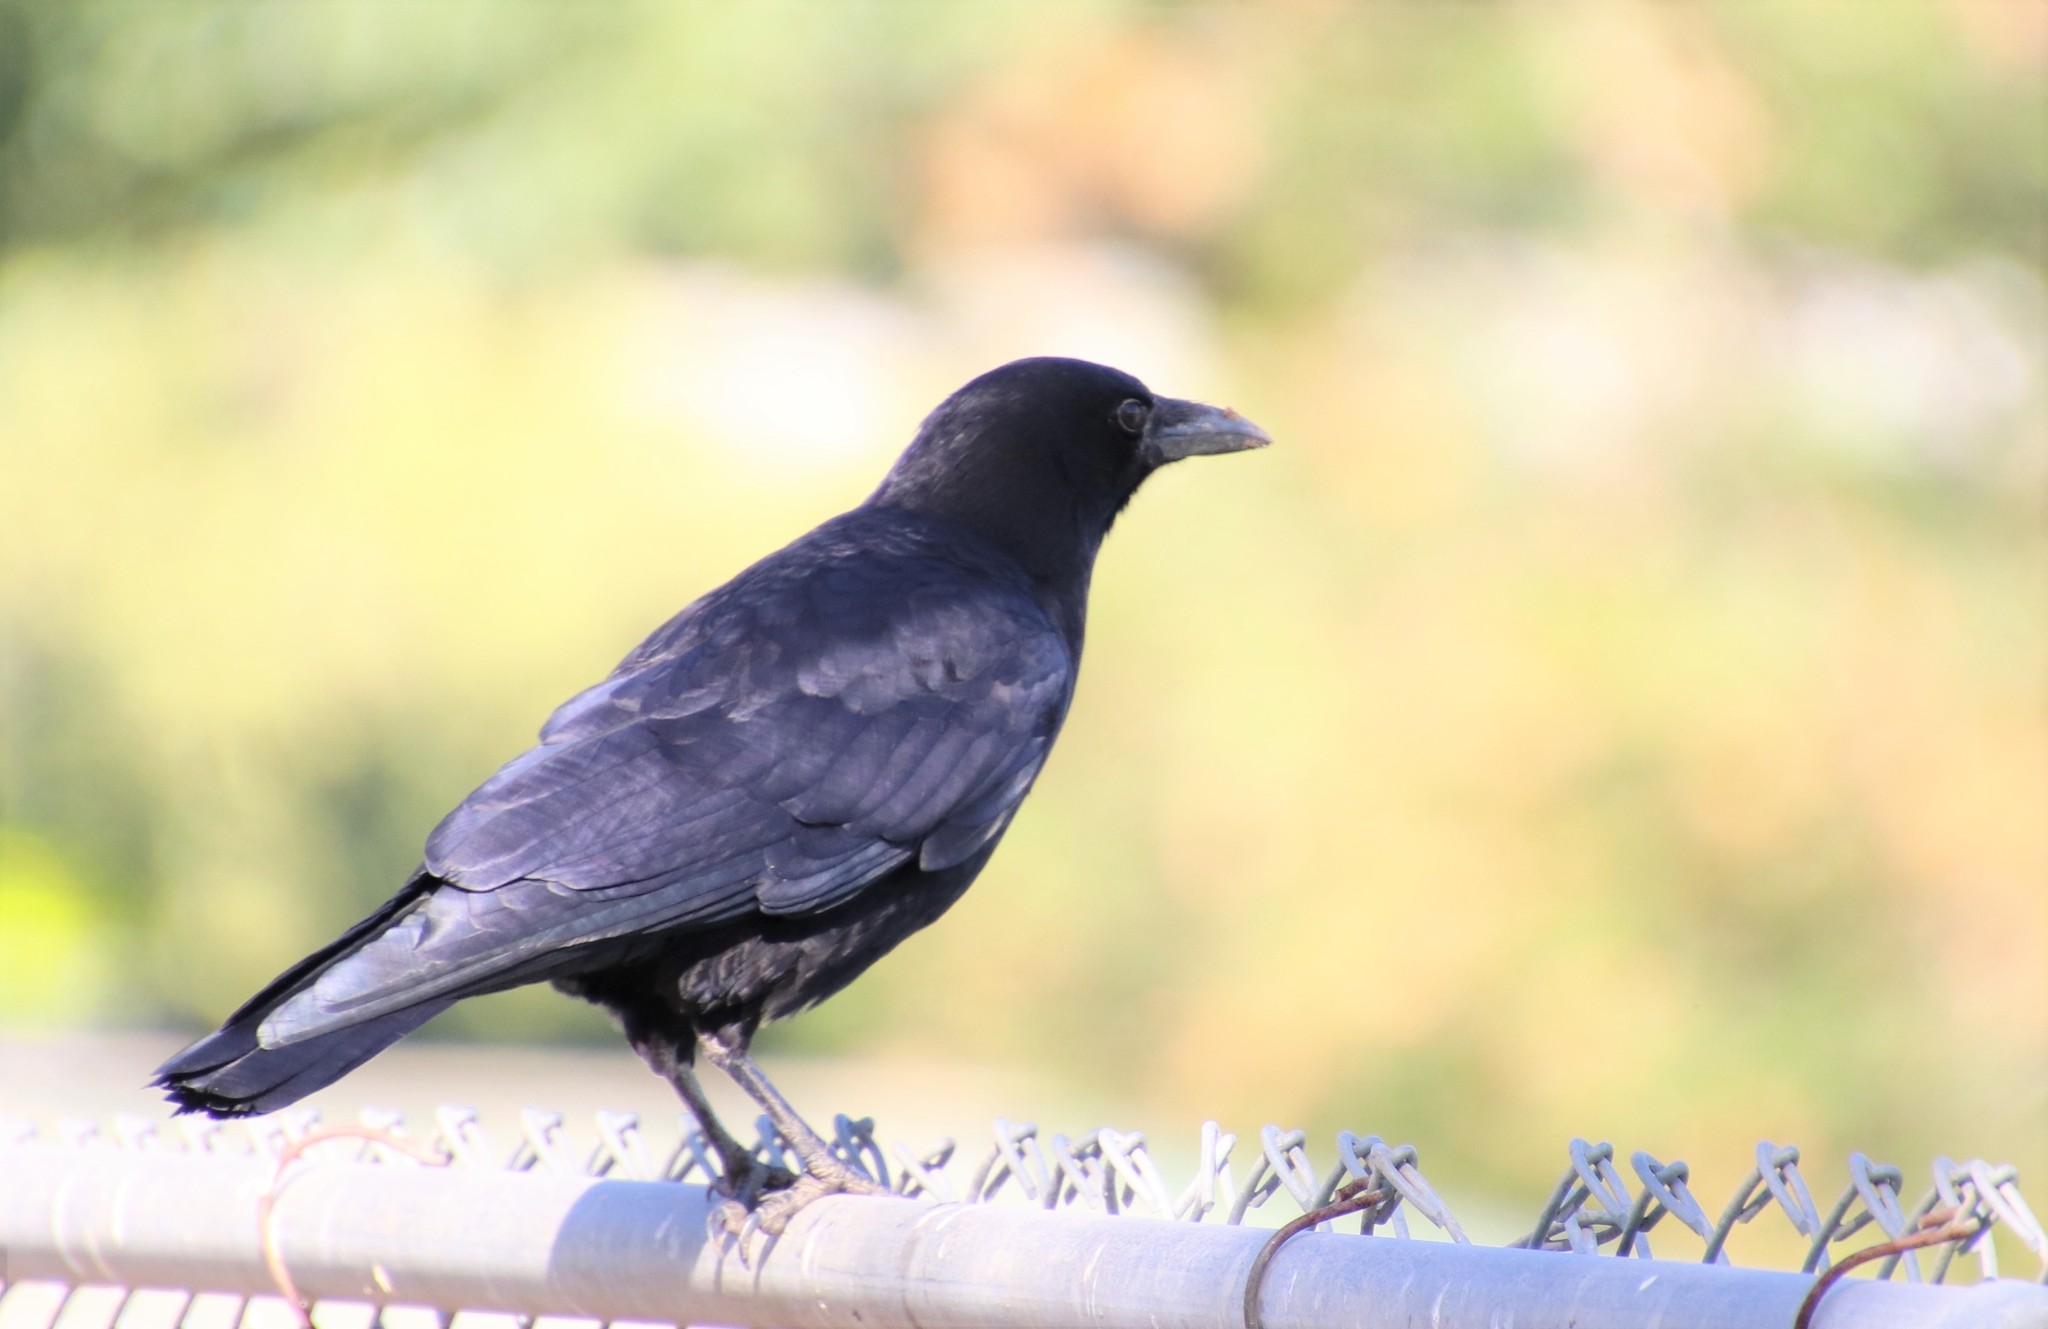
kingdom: Animalia
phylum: Chordata
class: Aves
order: Passeriformes
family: Corvidae
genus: Corvus
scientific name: Corvus brachyrhynchos
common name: American crow
